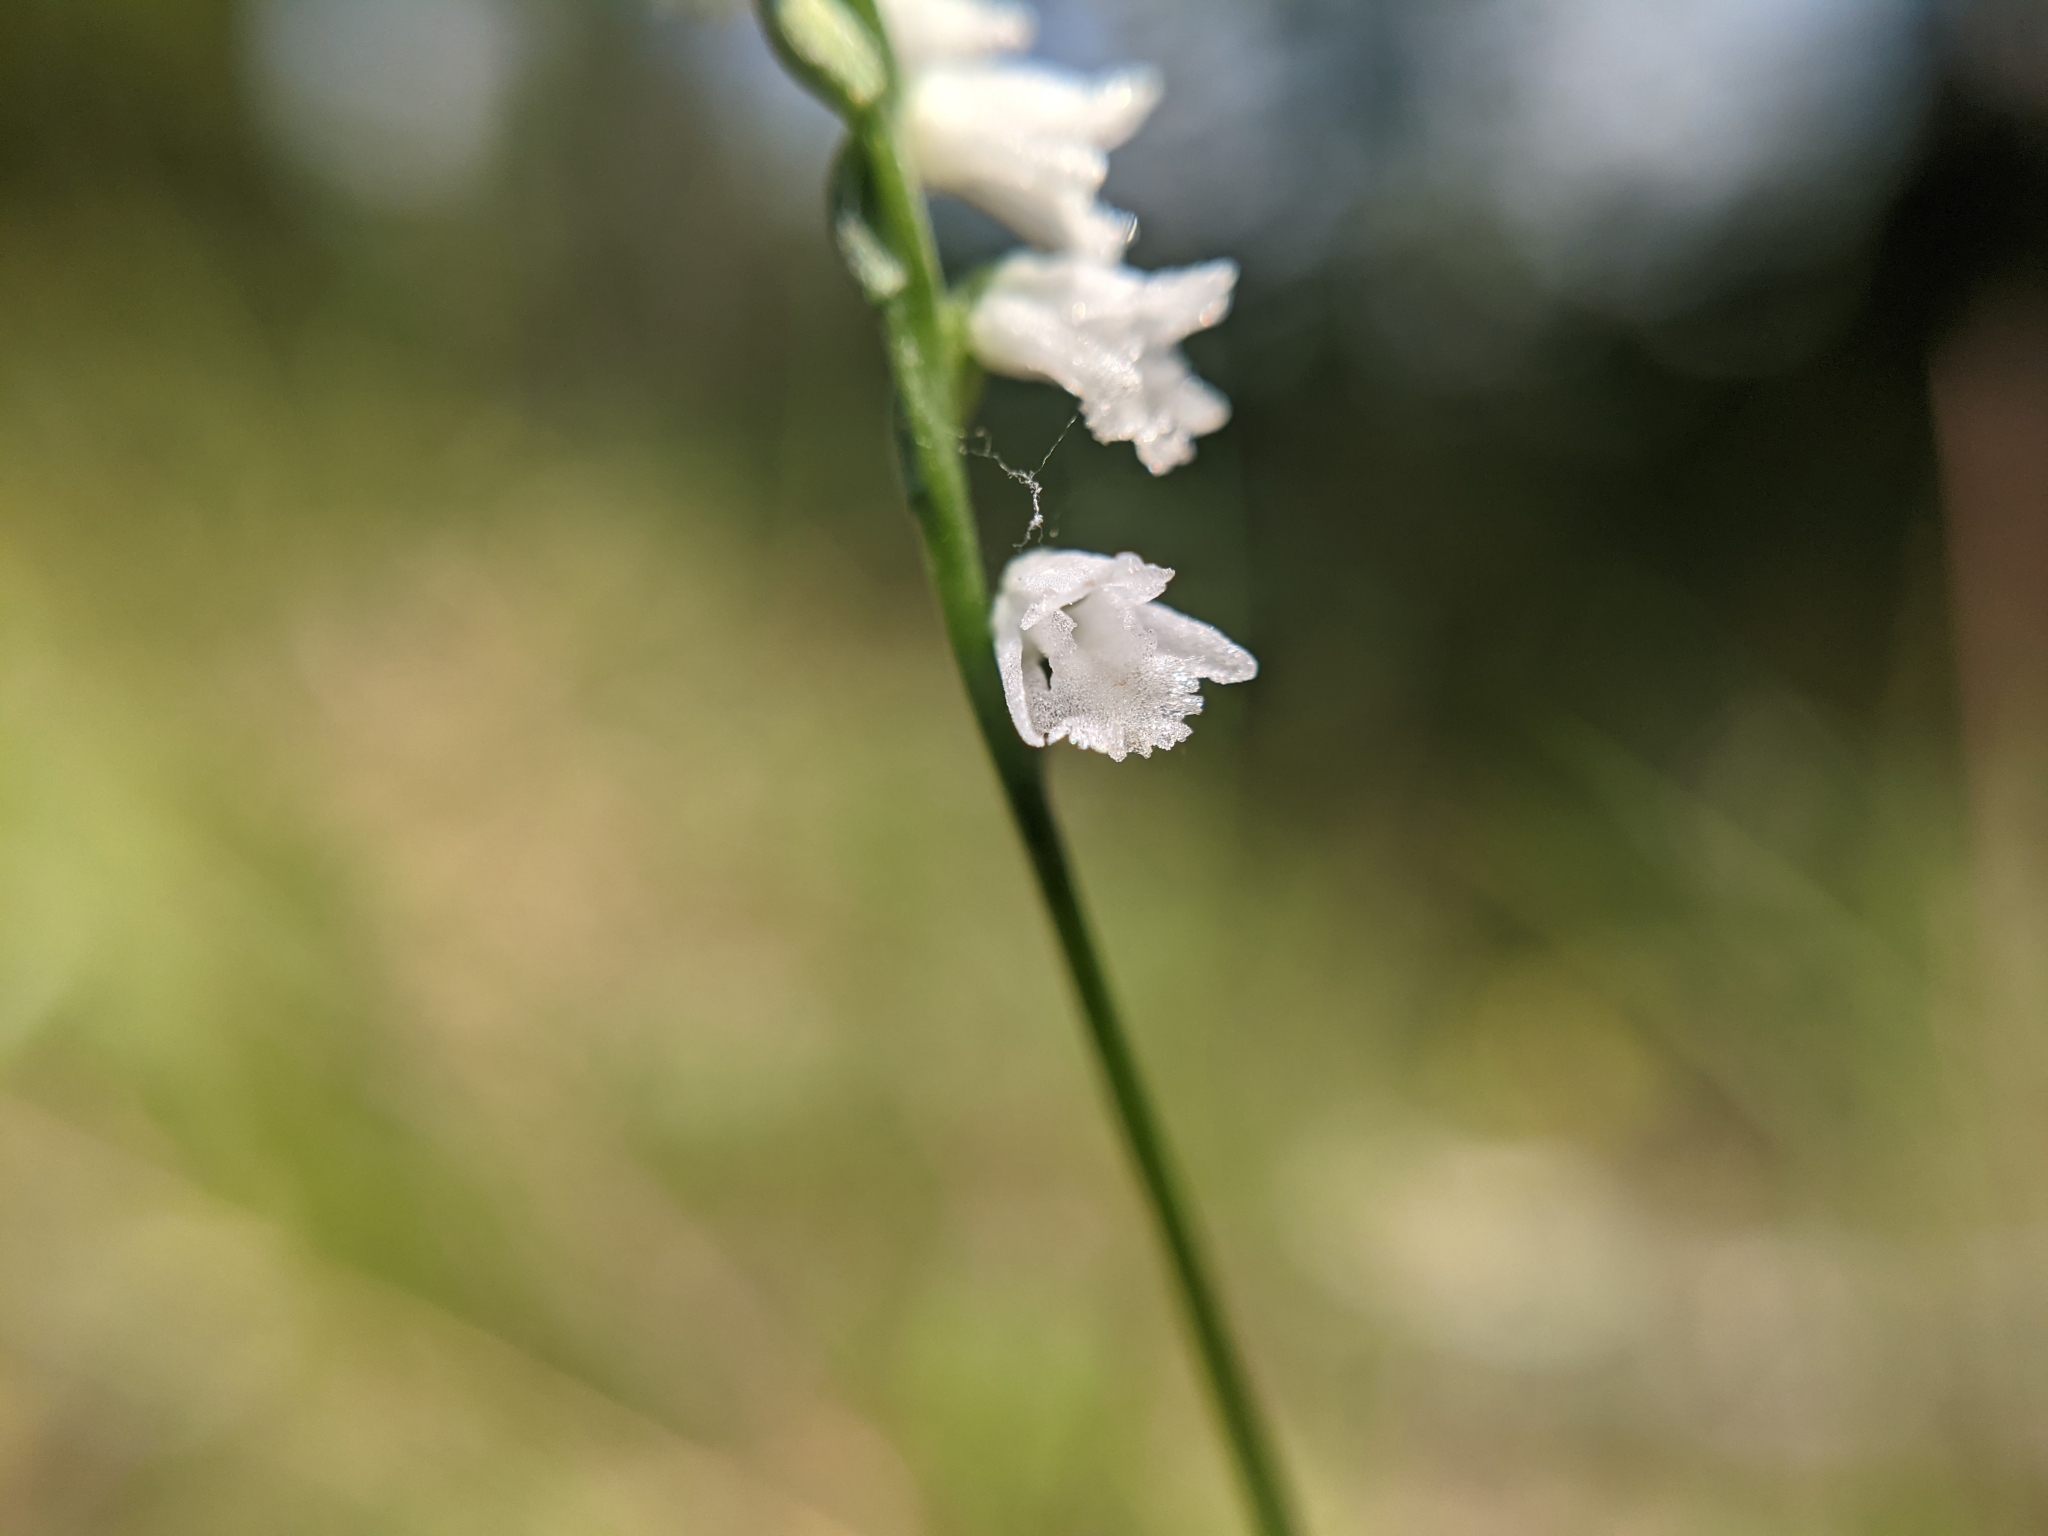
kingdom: Plantae
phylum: Tracheophyta
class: Liliopsida
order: Asparagales
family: Orchidaceae
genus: Spiranthes
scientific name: Spiranthes tuberosa
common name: Little ladies'-tresses
